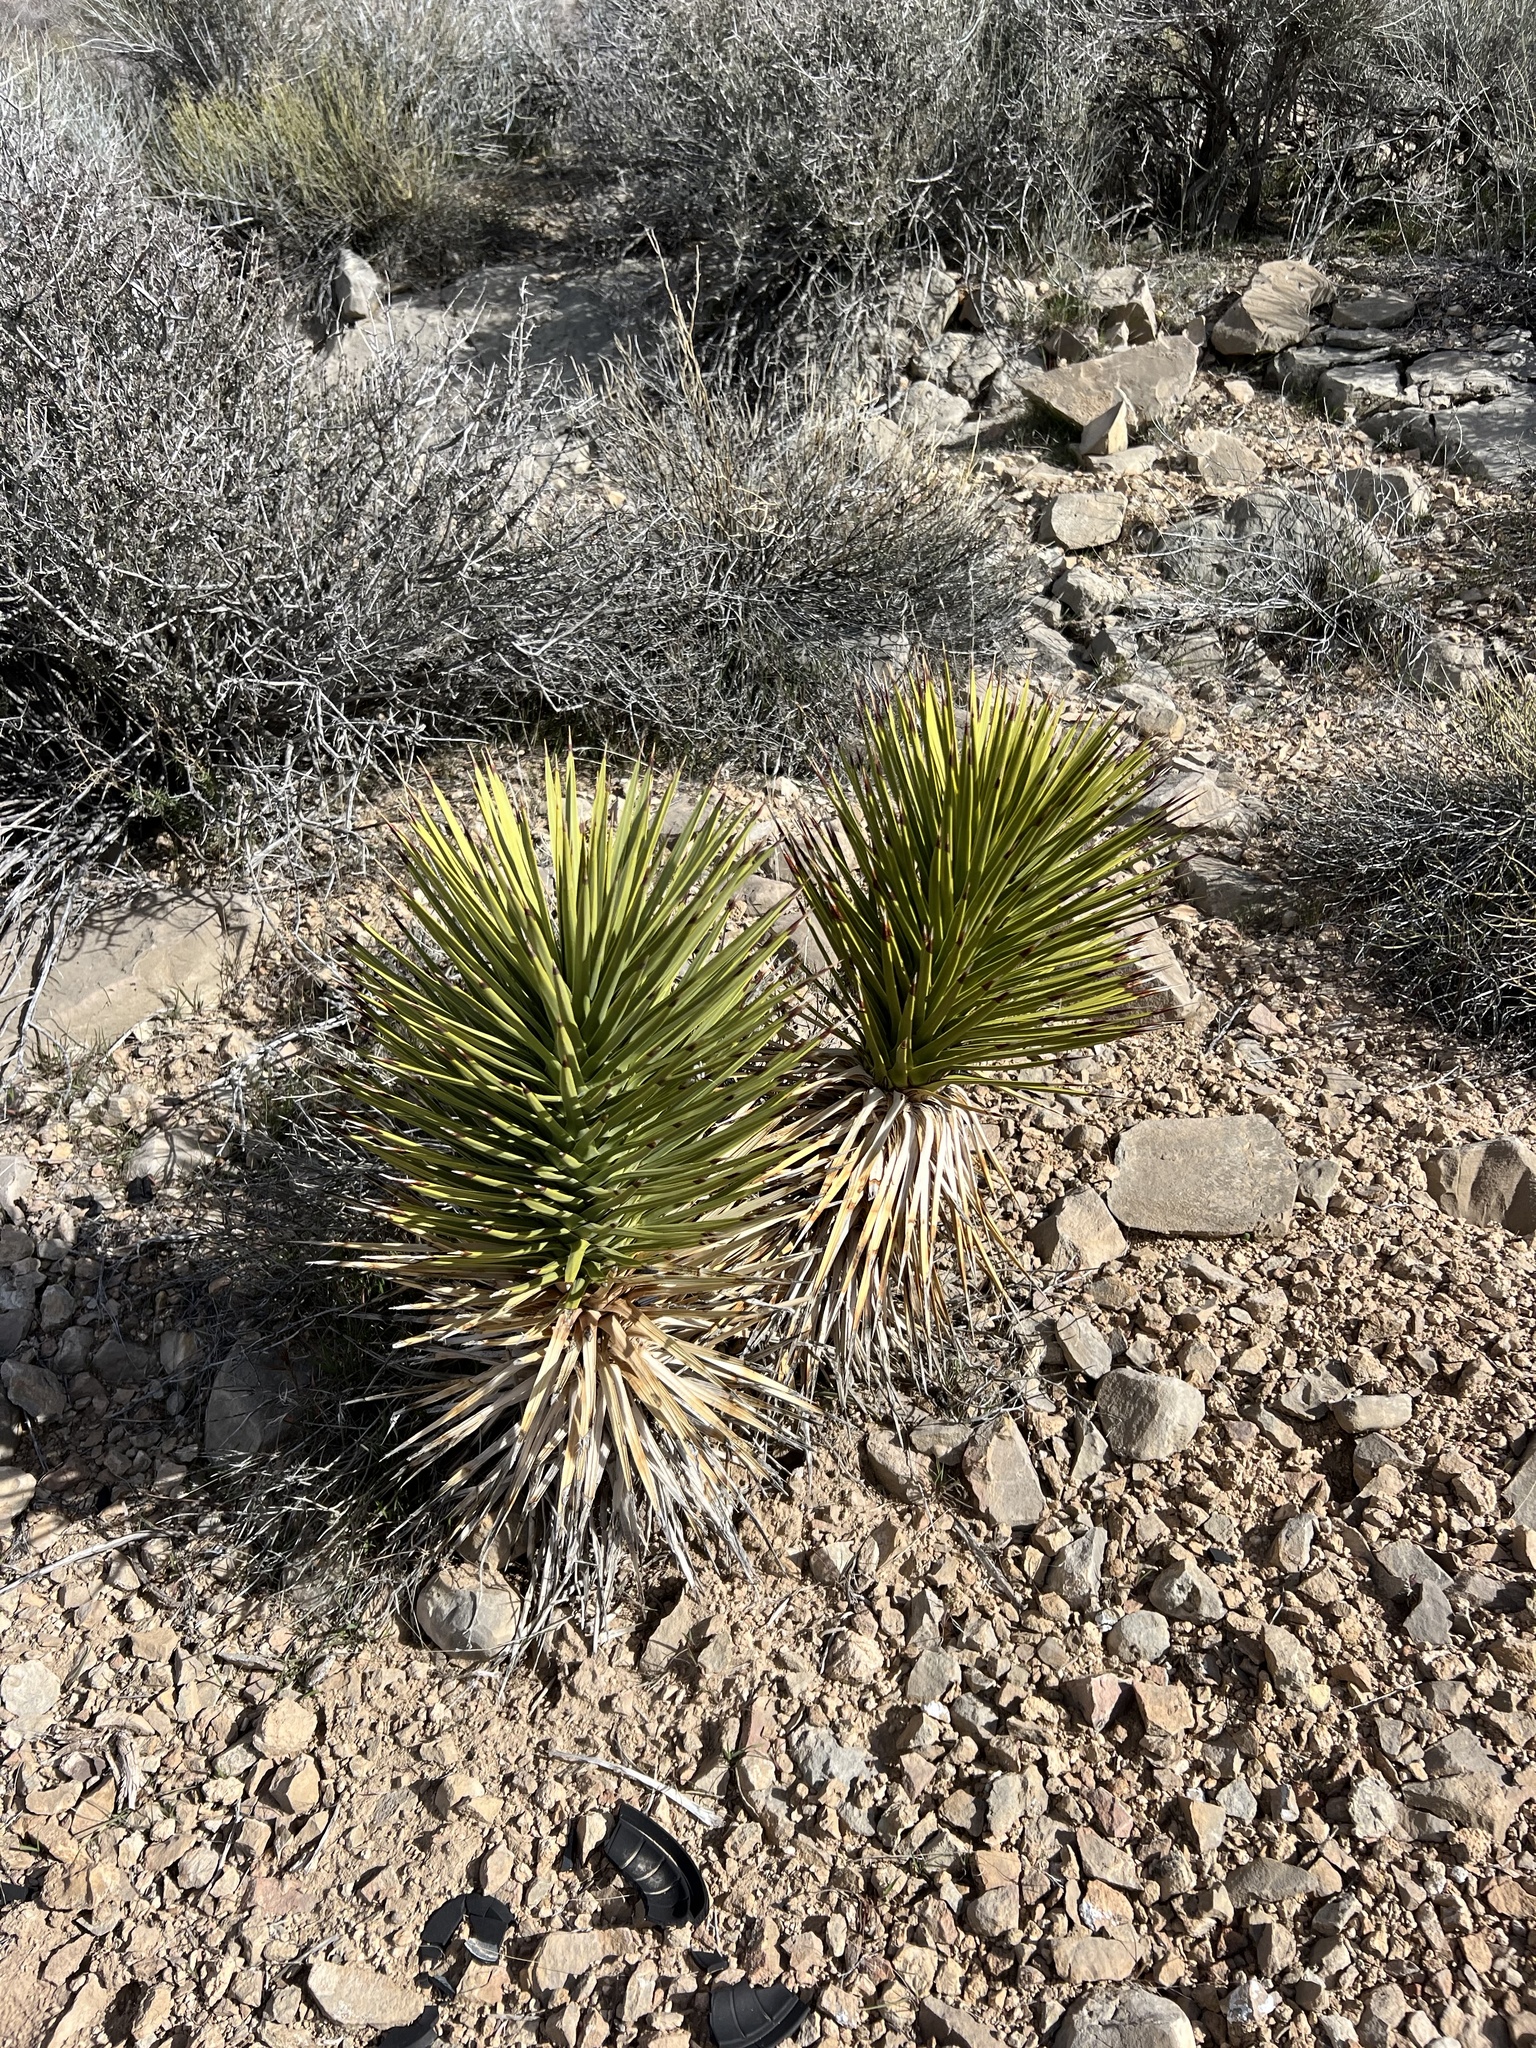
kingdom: Plantae
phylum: Tracheophyta
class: Liliopsida
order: Asparagales
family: Asparagaceae
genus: Yucca
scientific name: Yucca brevifolia
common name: Joshua tree
